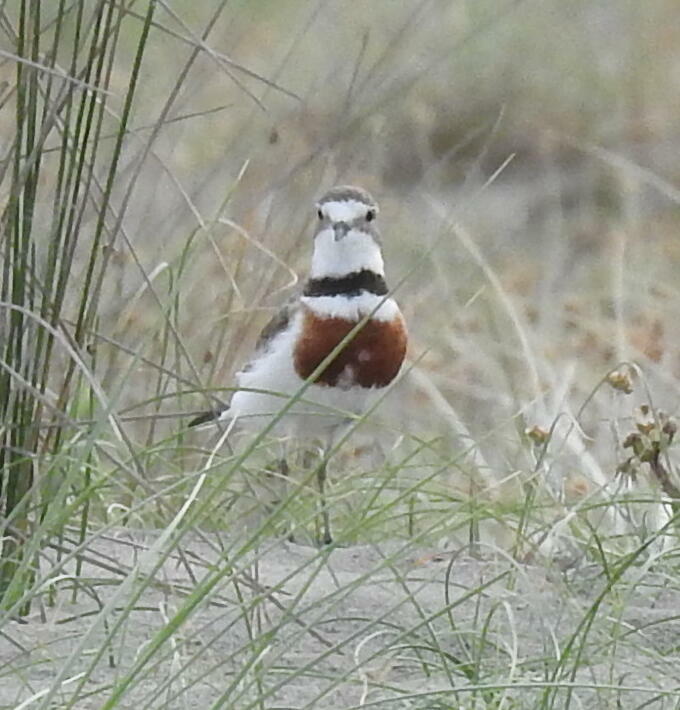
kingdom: Animalia
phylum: Chordata
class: Aves
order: Charadriiformes
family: Charadriidae
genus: Anarhynchus
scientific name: Anarhynchus
